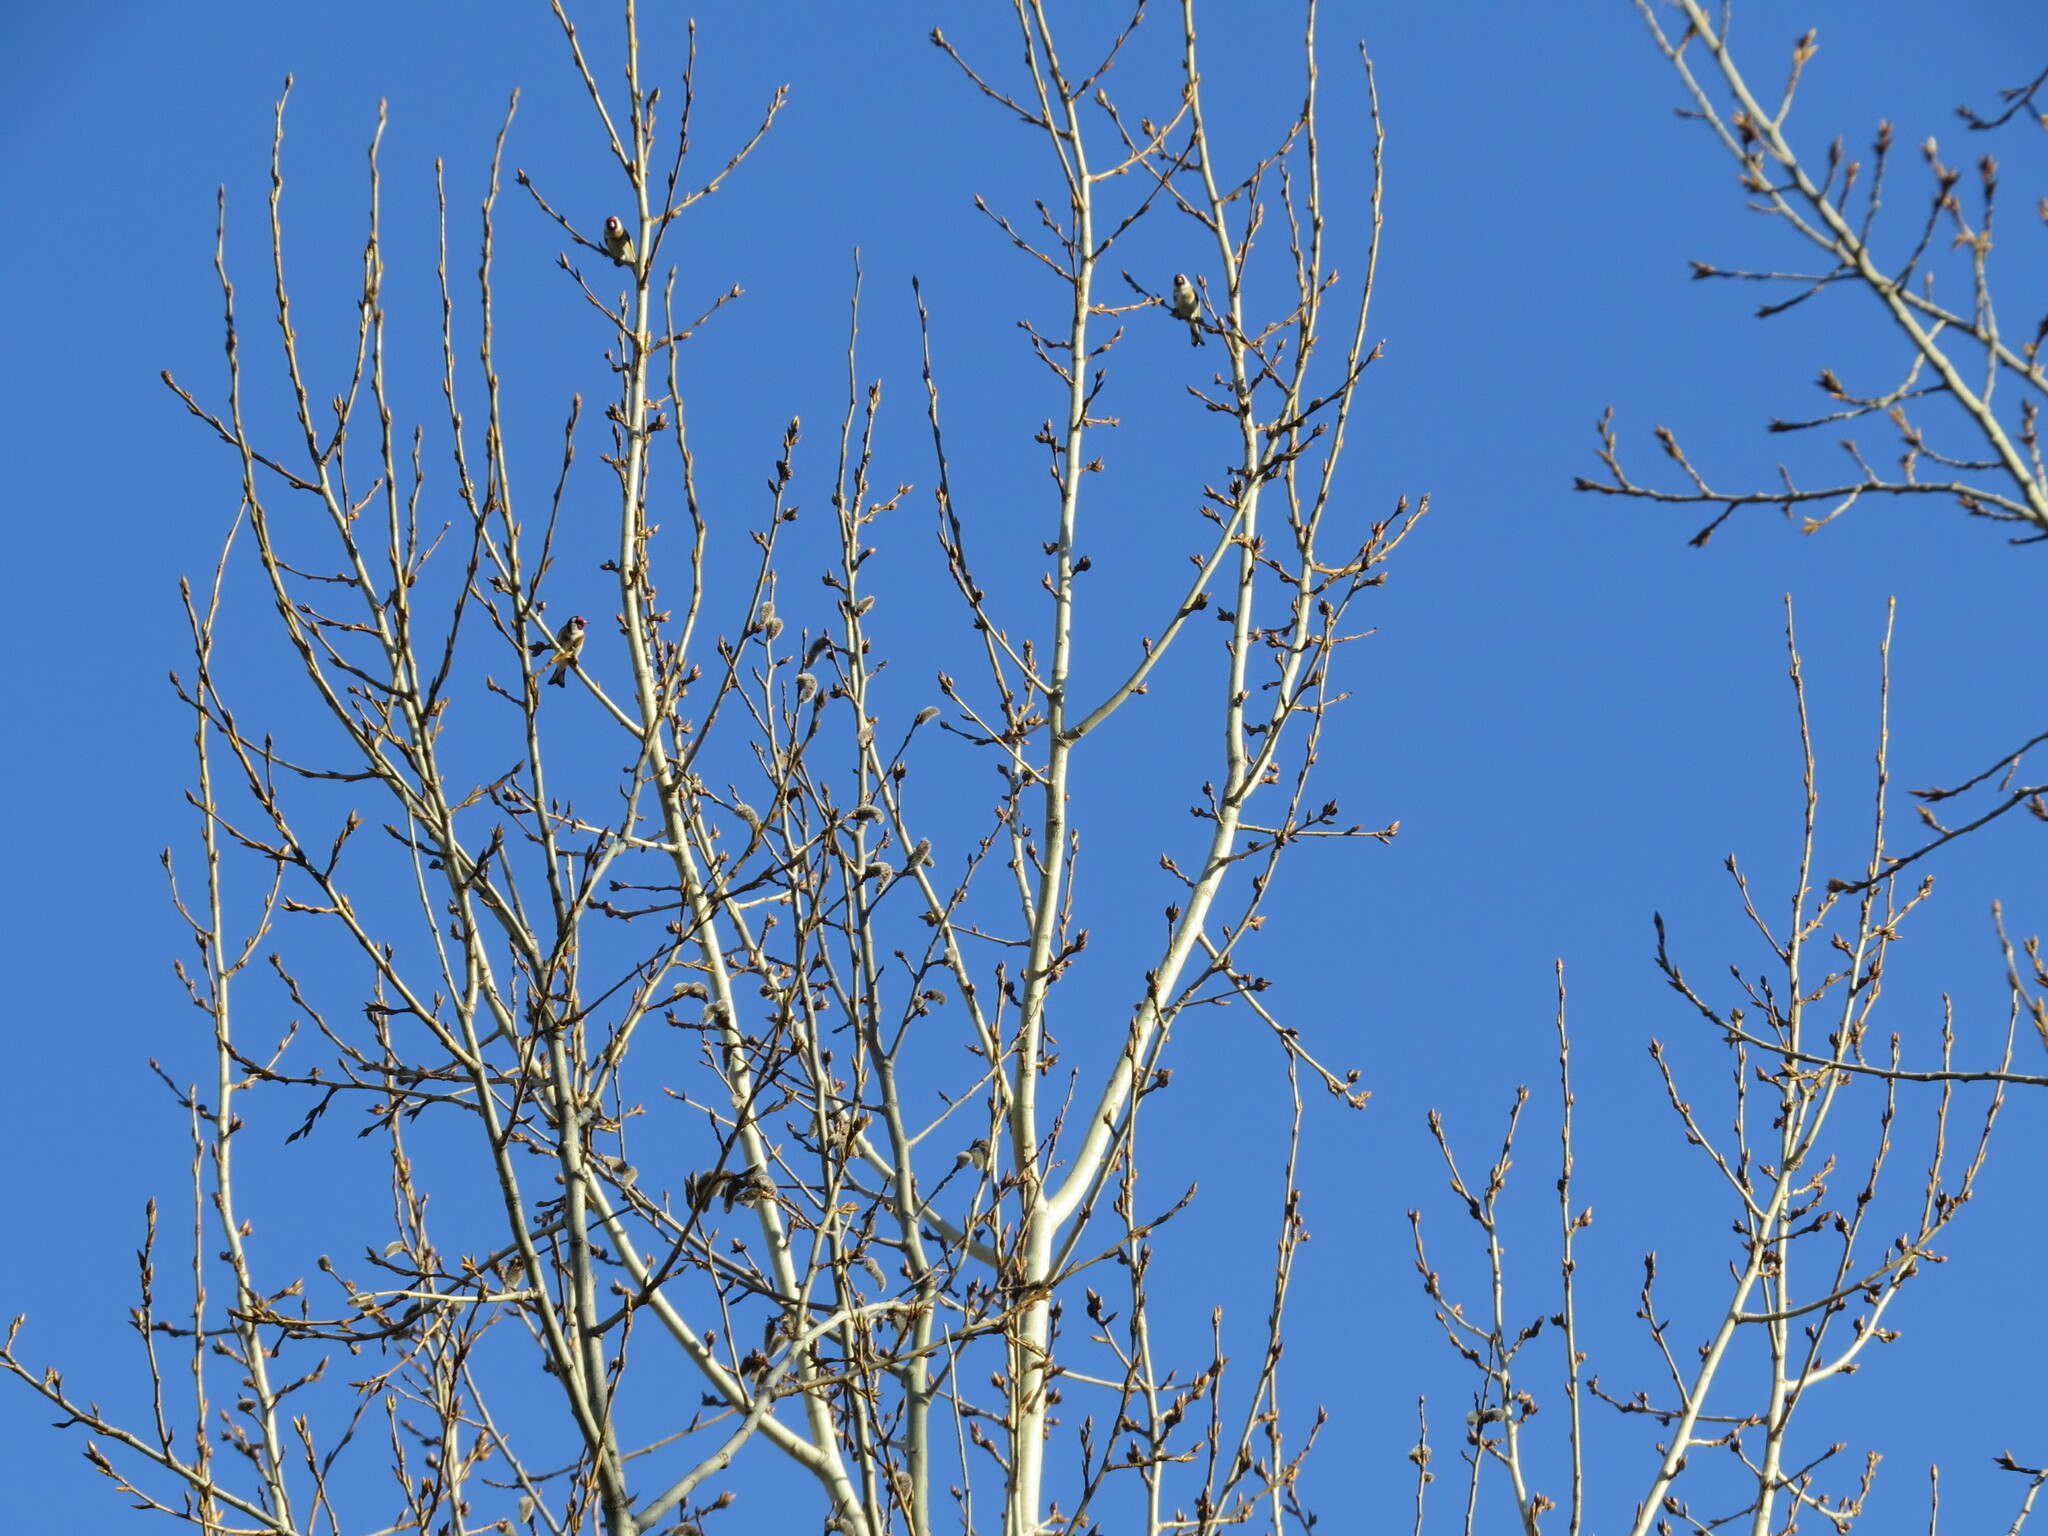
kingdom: Animalia
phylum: Chordata
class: Aves
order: Passeriformes
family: Fringillidae
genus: Carduelis
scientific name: Carduelis carduelis
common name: European goldfinch
